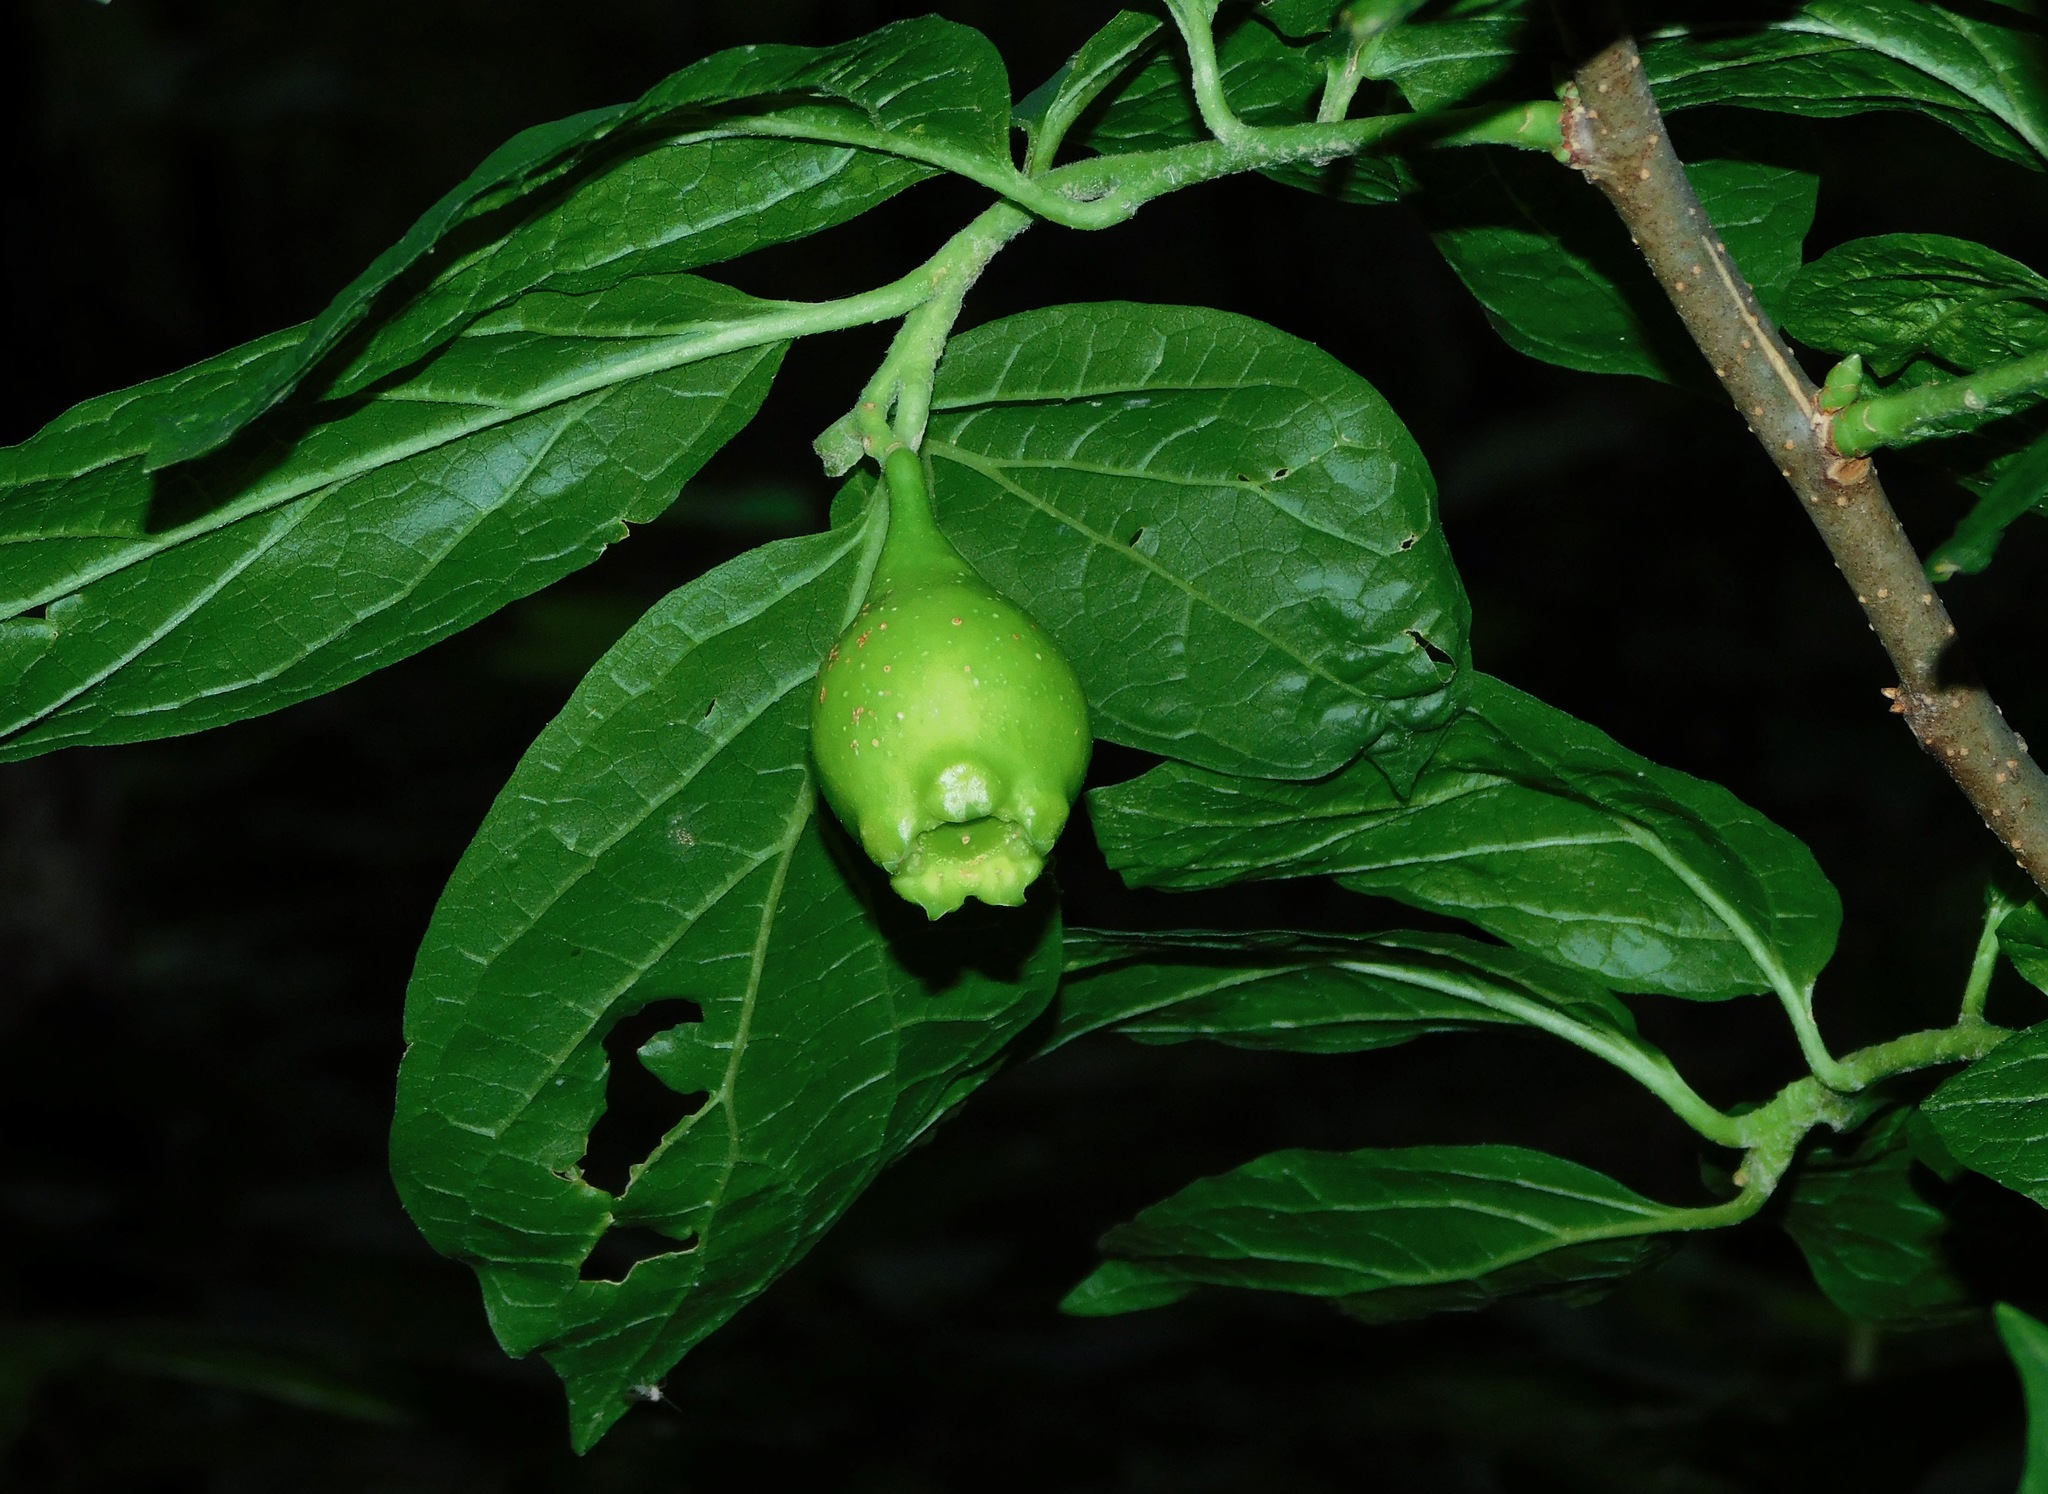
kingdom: Plantae
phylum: Tracheophyta
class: Magnoliopsida
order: Santalales
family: Cervantesiaceae
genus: Pyrularia
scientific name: Pyrularia pubera
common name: Oilnut
